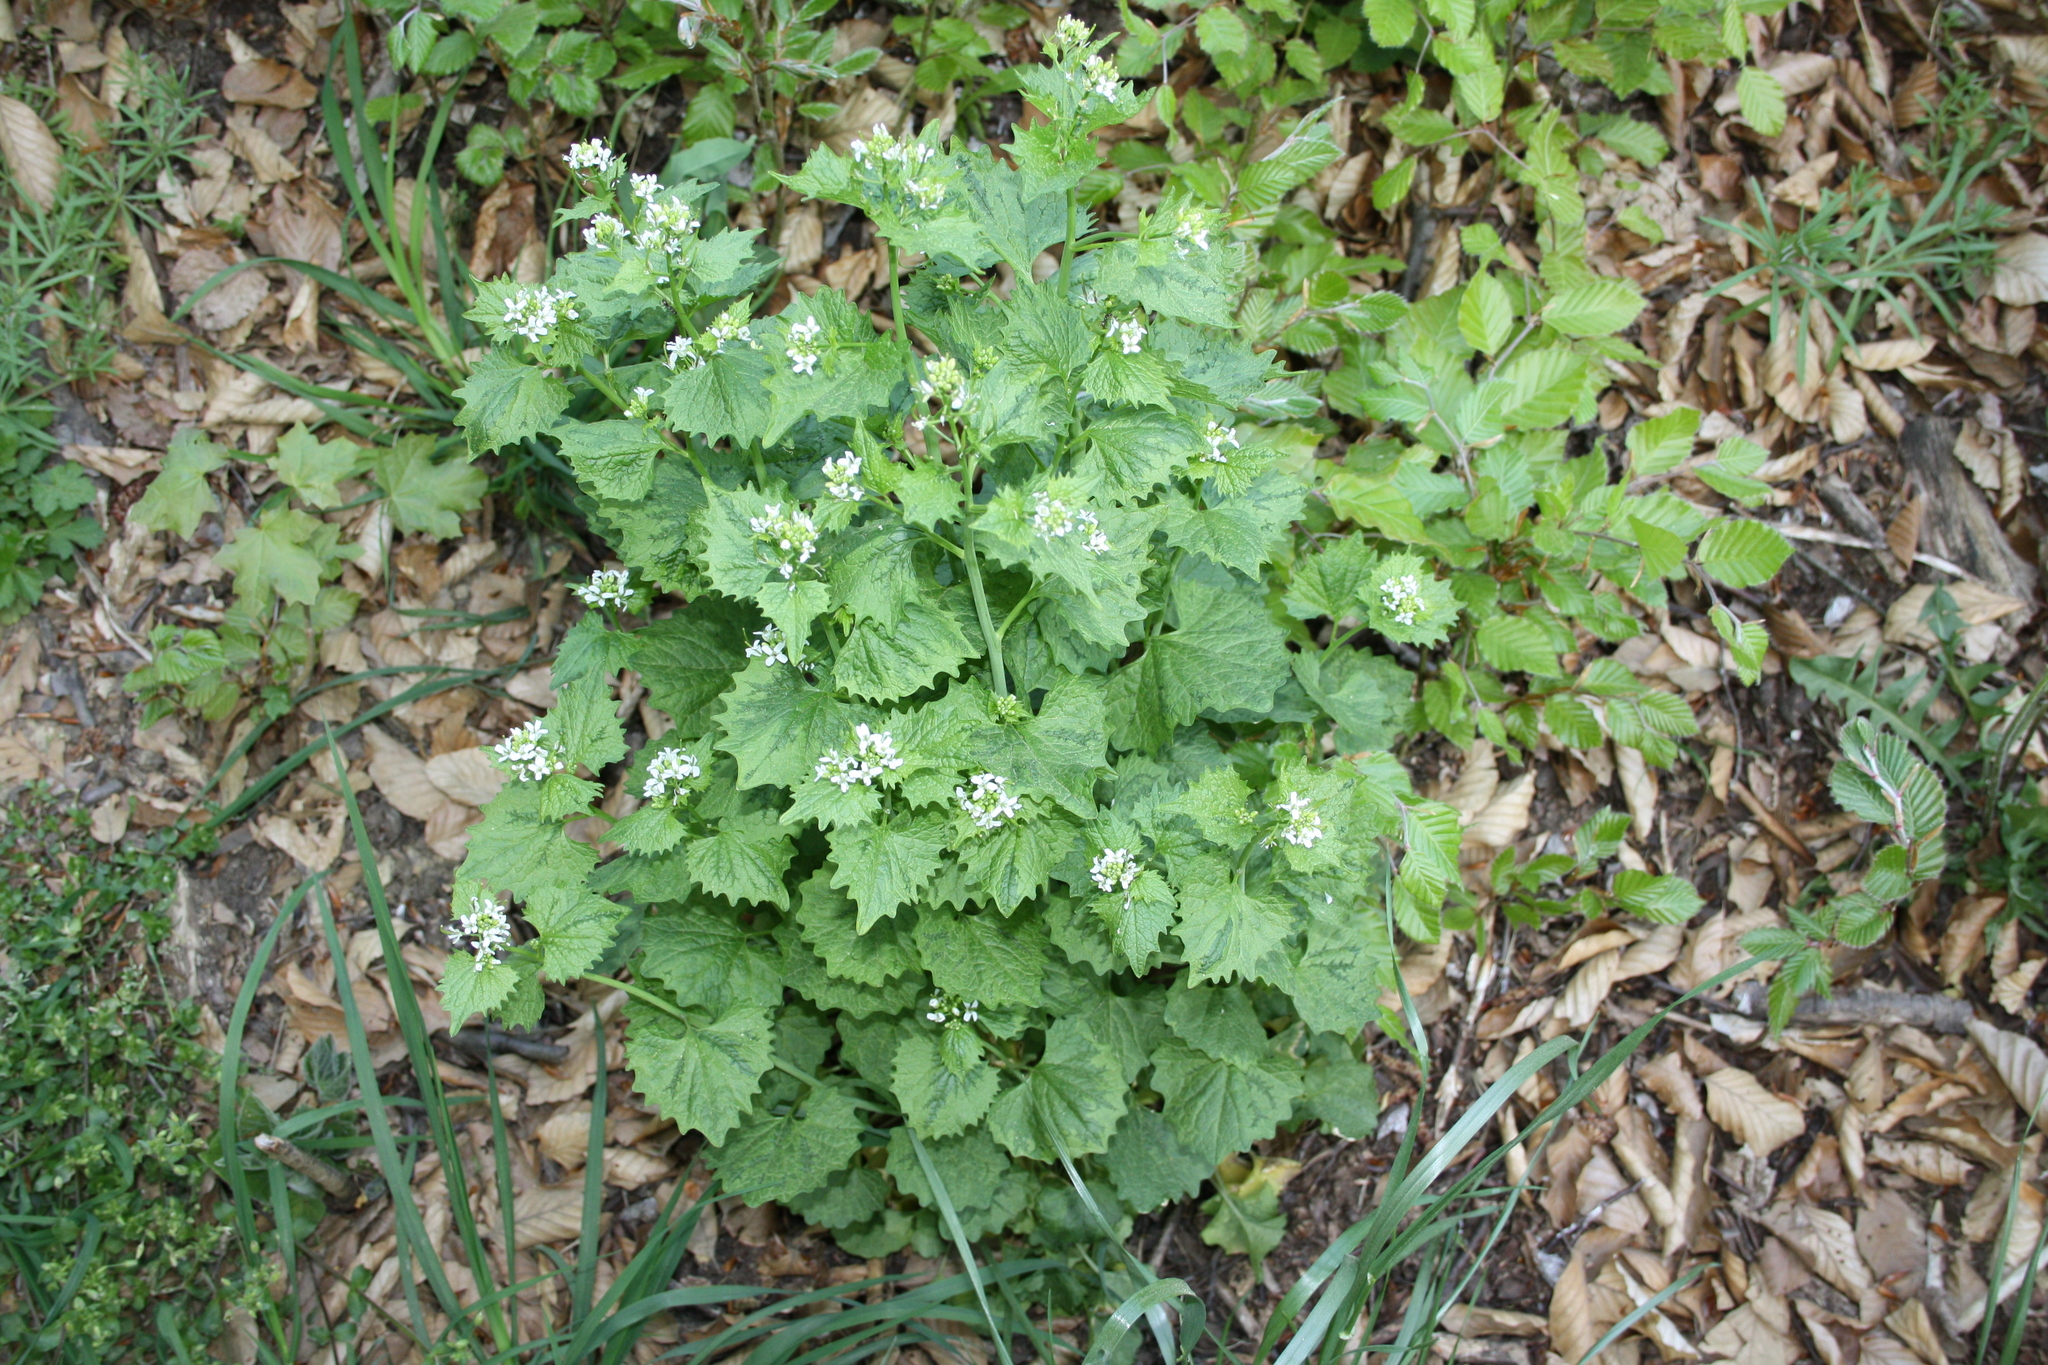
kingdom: Plantae
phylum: Tracheophyta
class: Magnoliopsida
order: Brassicales
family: Brassicaceae
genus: Alliaria
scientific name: Alliaria petiolata
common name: Garlic mustard
